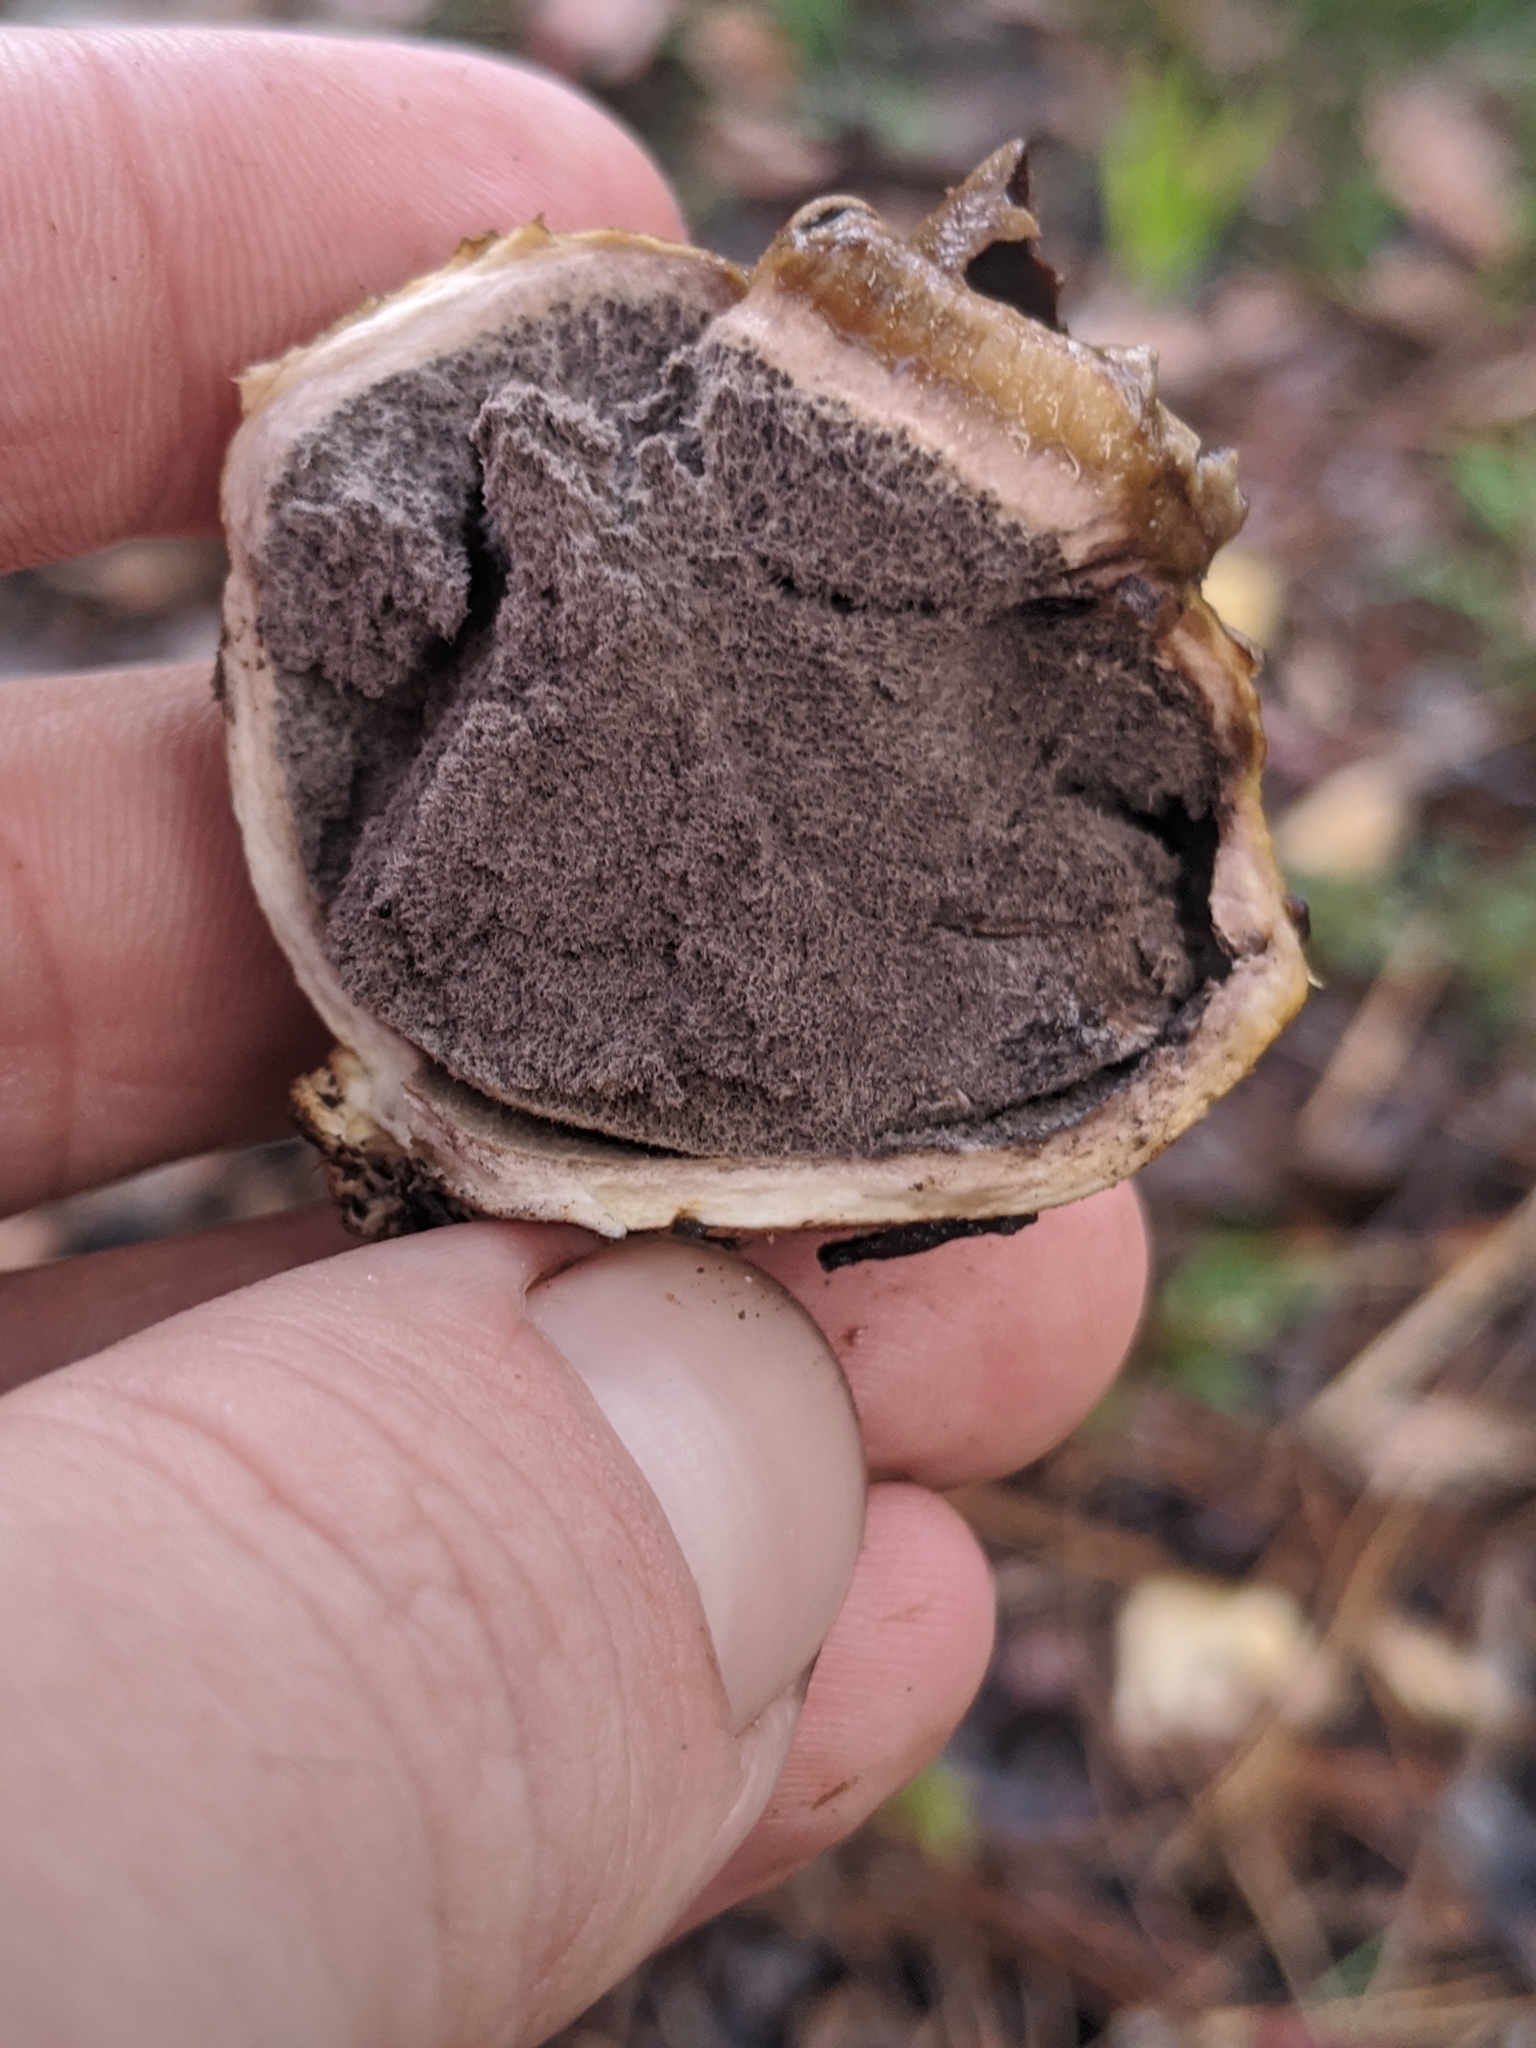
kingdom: Fungi
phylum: Basidiomycota
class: Agaricomycetes
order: Boletales
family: Sclerodermataceae
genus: Scleroderma
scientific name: Scleroderma cepa
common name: Onion earthball
